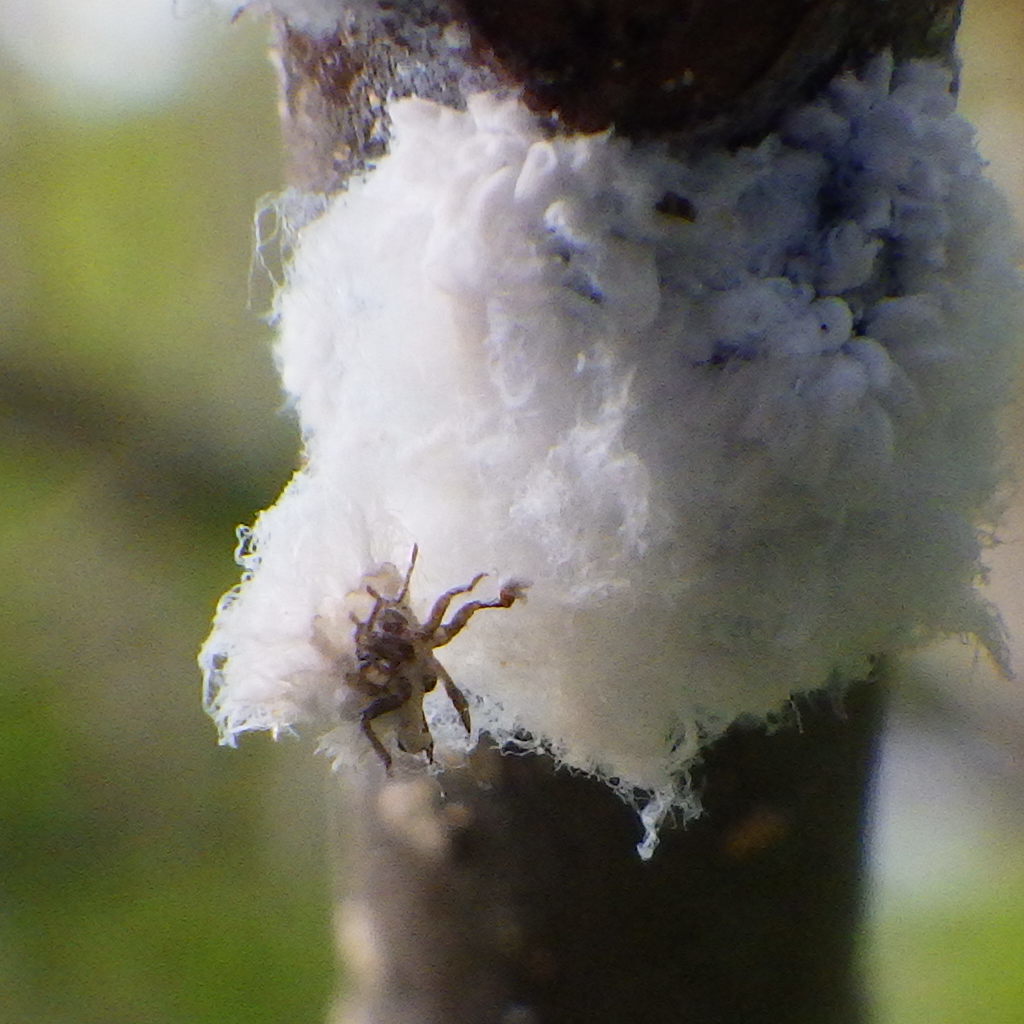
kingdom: Animalia
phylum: Arthropoda
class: Insecta
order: Hemiptera
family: Aphididae
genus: Prociphilus
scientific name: Prociphilus tessellatus
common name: Woolly alder aphid
